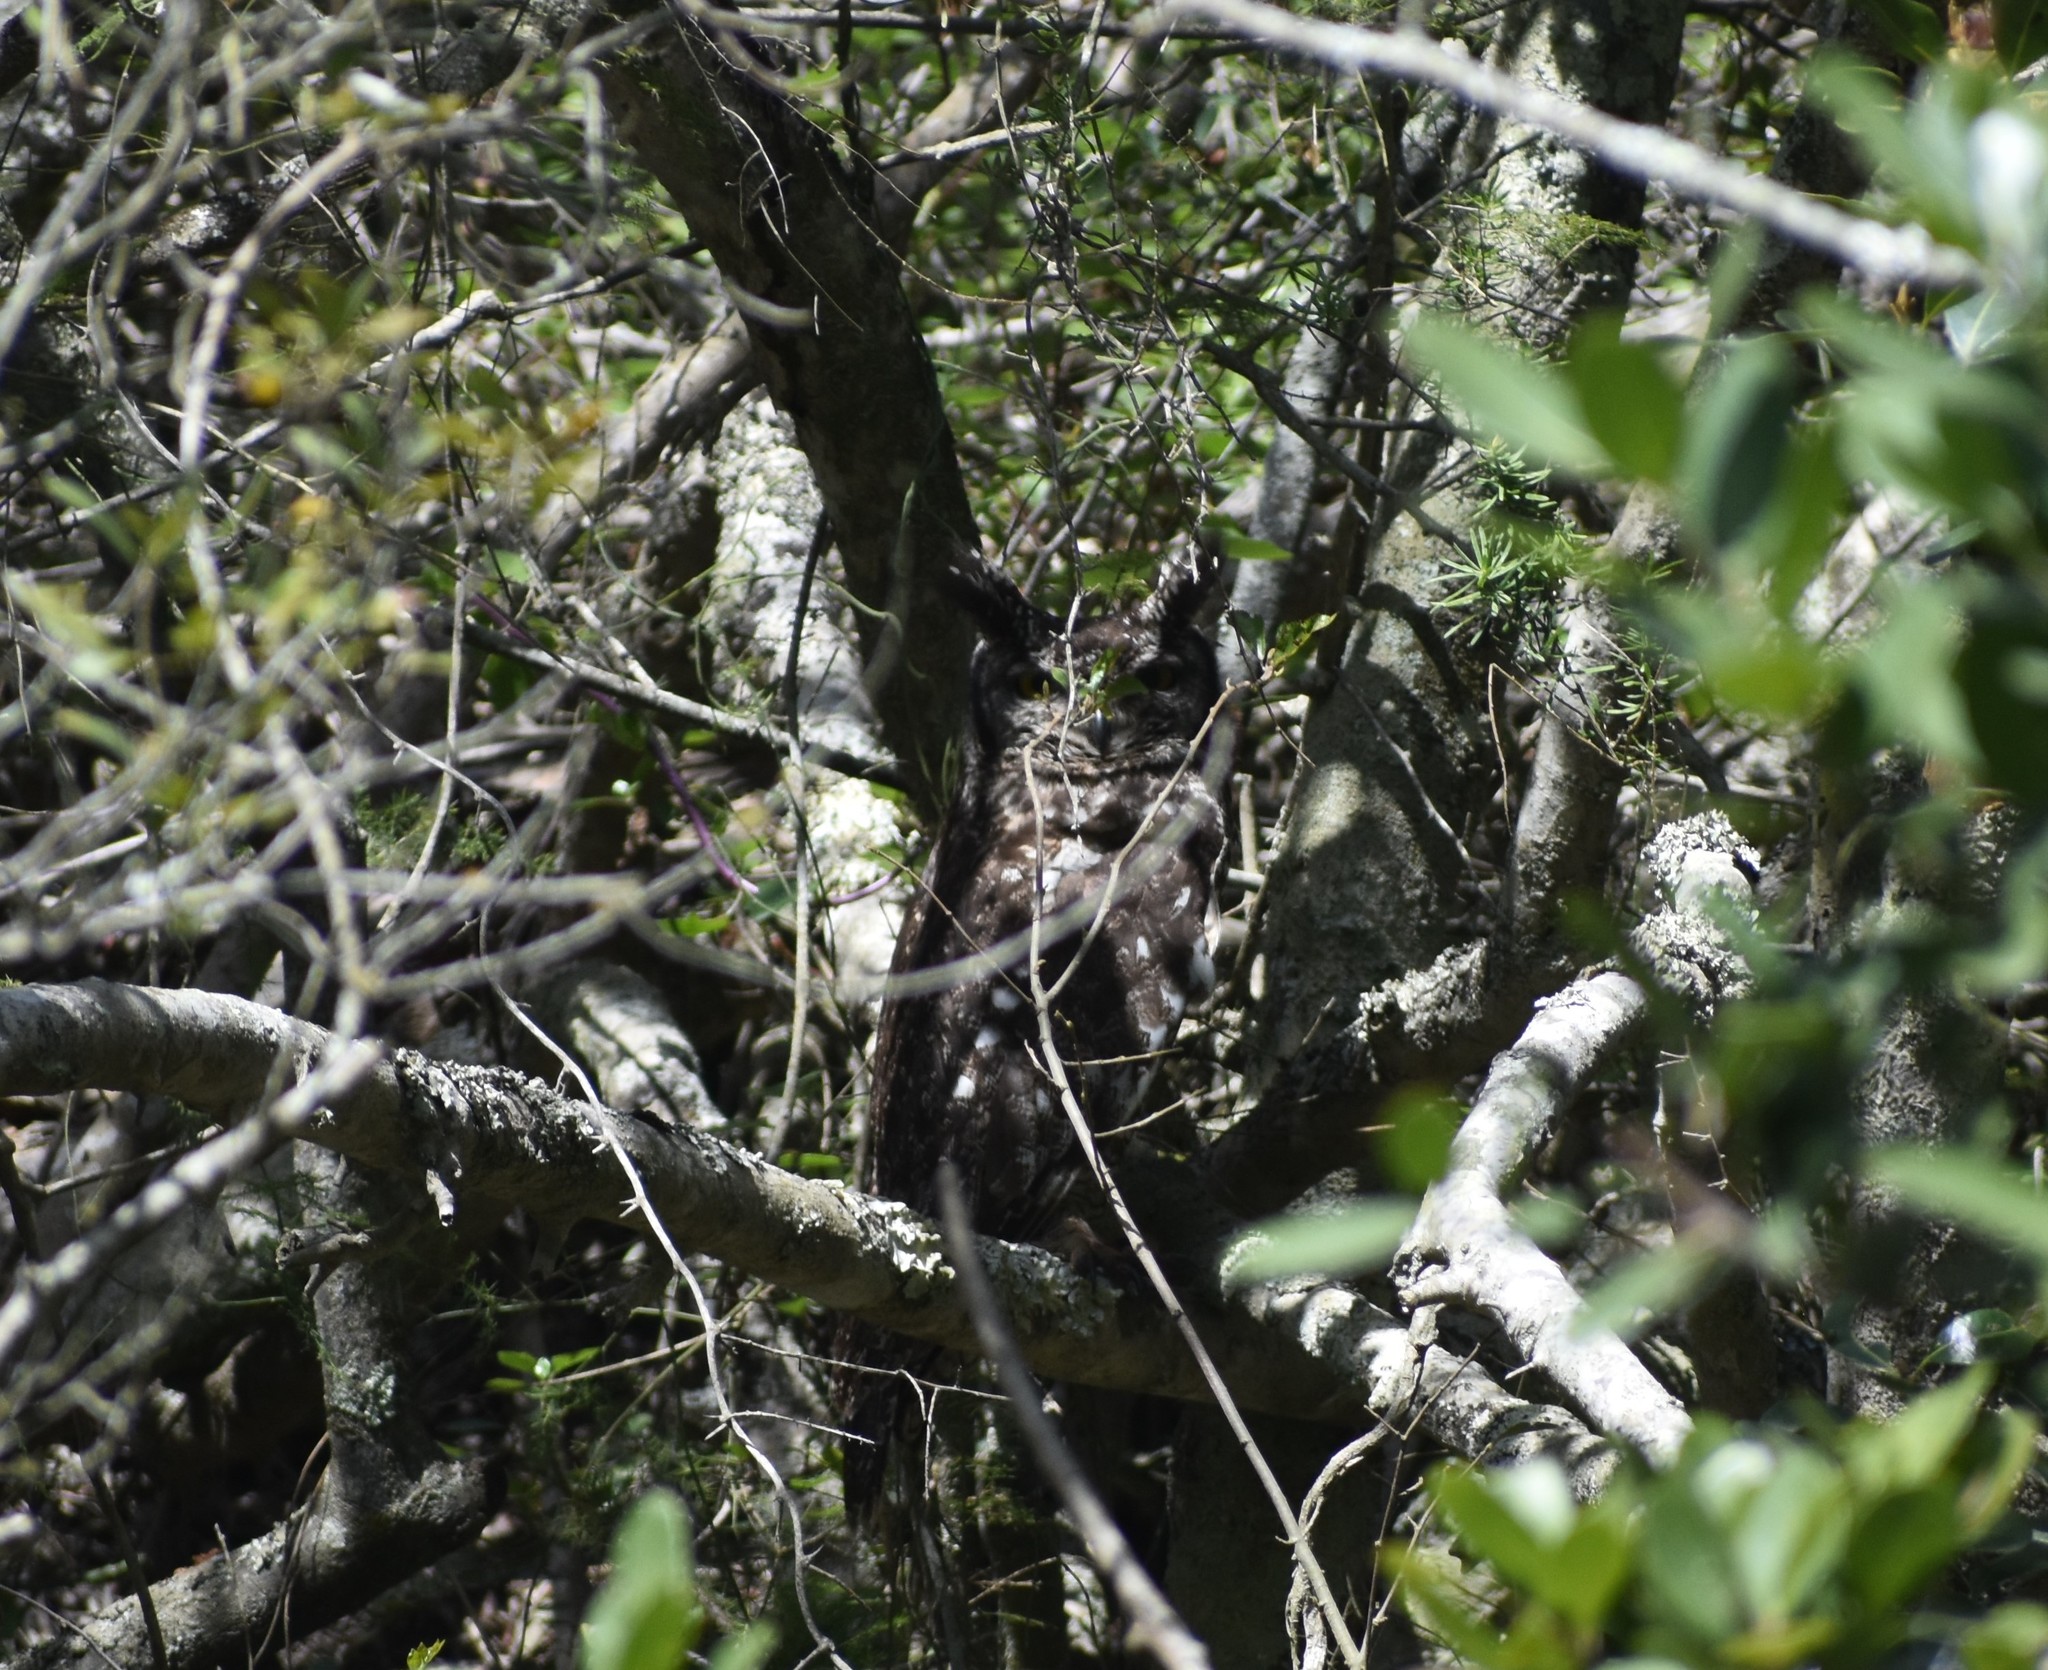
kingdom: Animalia
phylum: Chordata
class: Aves
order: Strigiformes
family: Strigidae
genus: Bubo
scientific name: Bubo africanus
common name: Spotted eagle-owl
